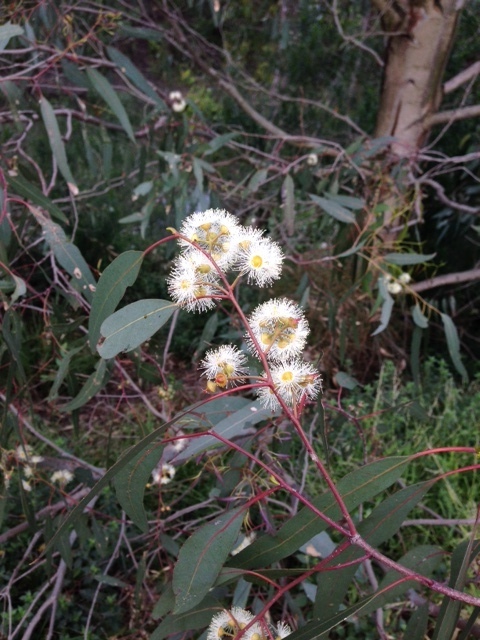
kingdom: Plantae
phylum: Tracheophyta
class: Magnoliopsida
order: Myrtales
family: Myrtaceae
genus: Eucalyptus
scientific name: Eucalyptus camaldulensis
